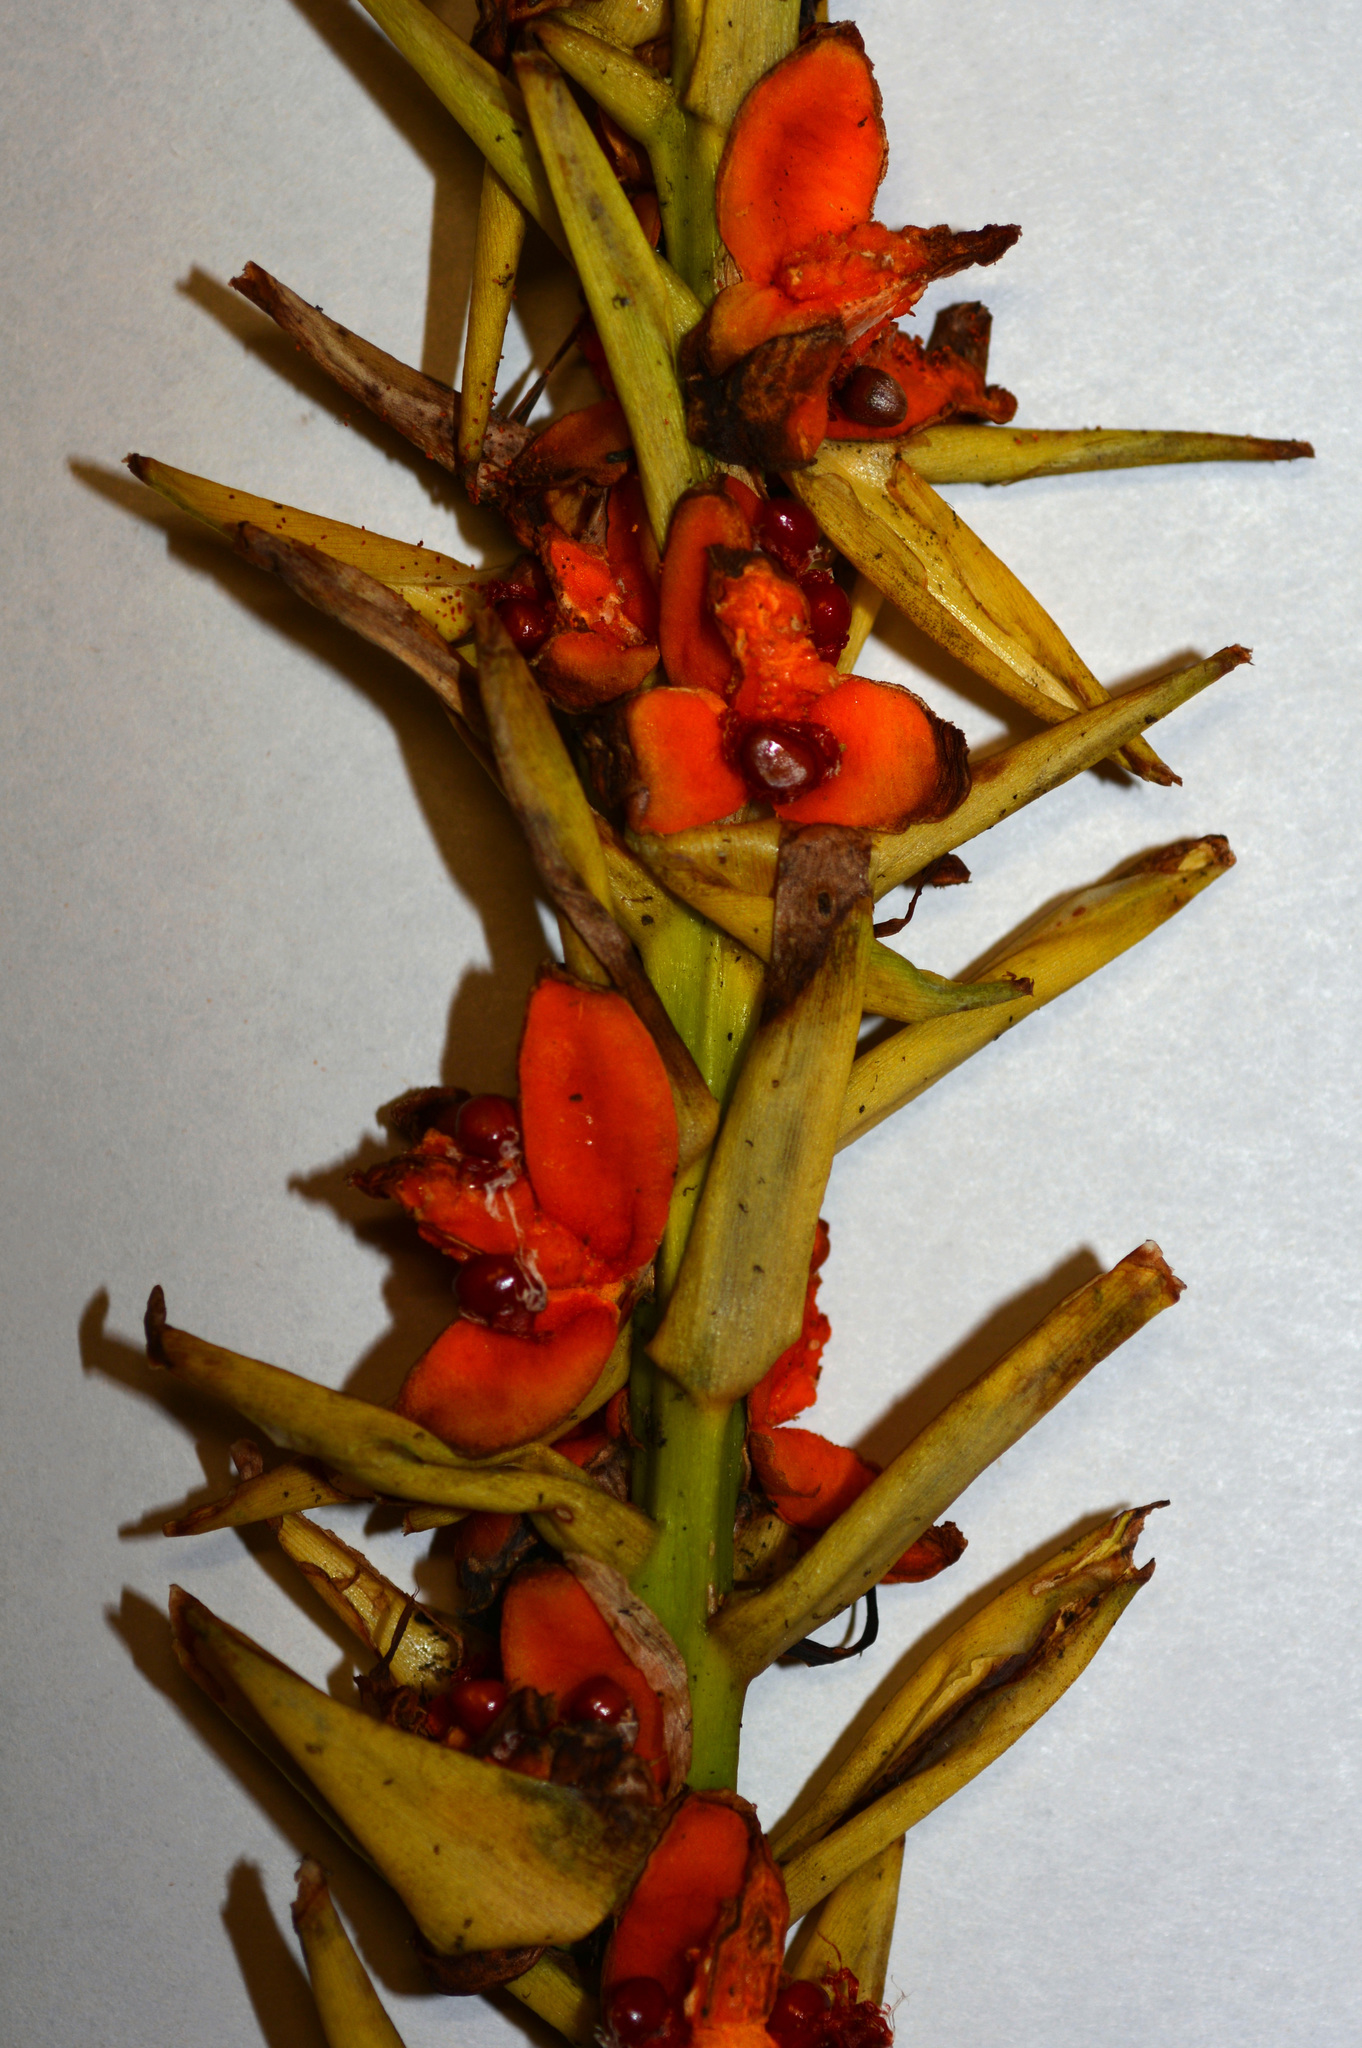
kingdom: Plantae
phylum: Tracheophyta
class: Liliopsida
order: Zingiberales
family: Zingiberaceae
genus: Hedychium
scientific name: Hedychium gardnerianum
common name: Himalayan ginger
